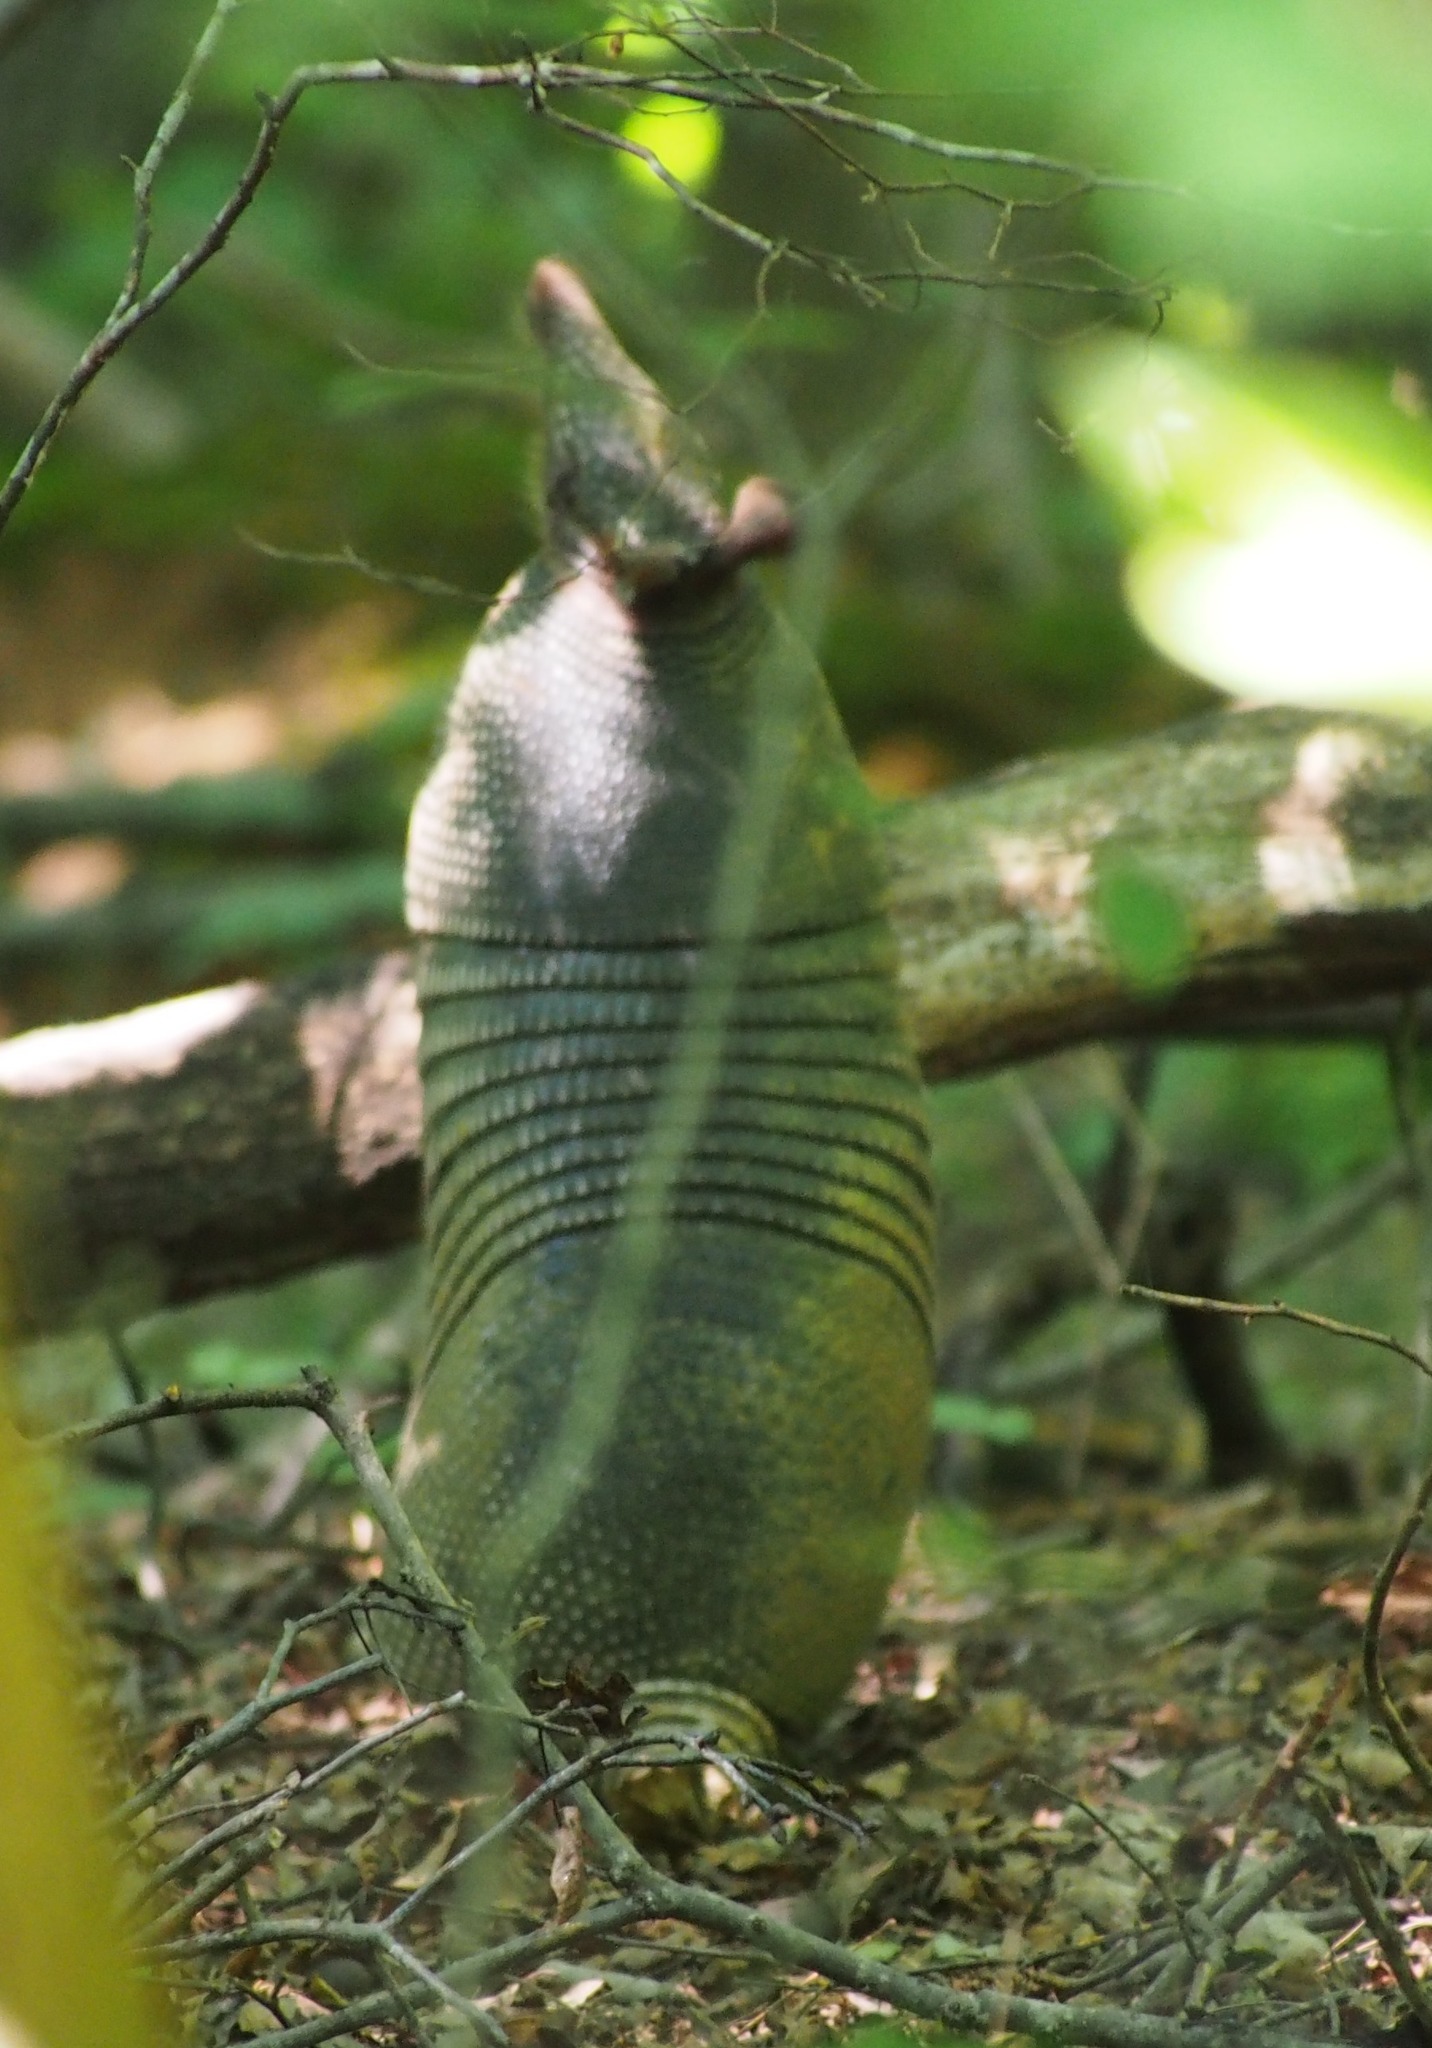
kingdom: Animalia
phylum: Chordata
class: Mammalia
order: Cingulata
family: Dasypodidae
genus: Dasypus
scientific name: Dasypus novemcinctus
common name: Nine-banded armadillo
